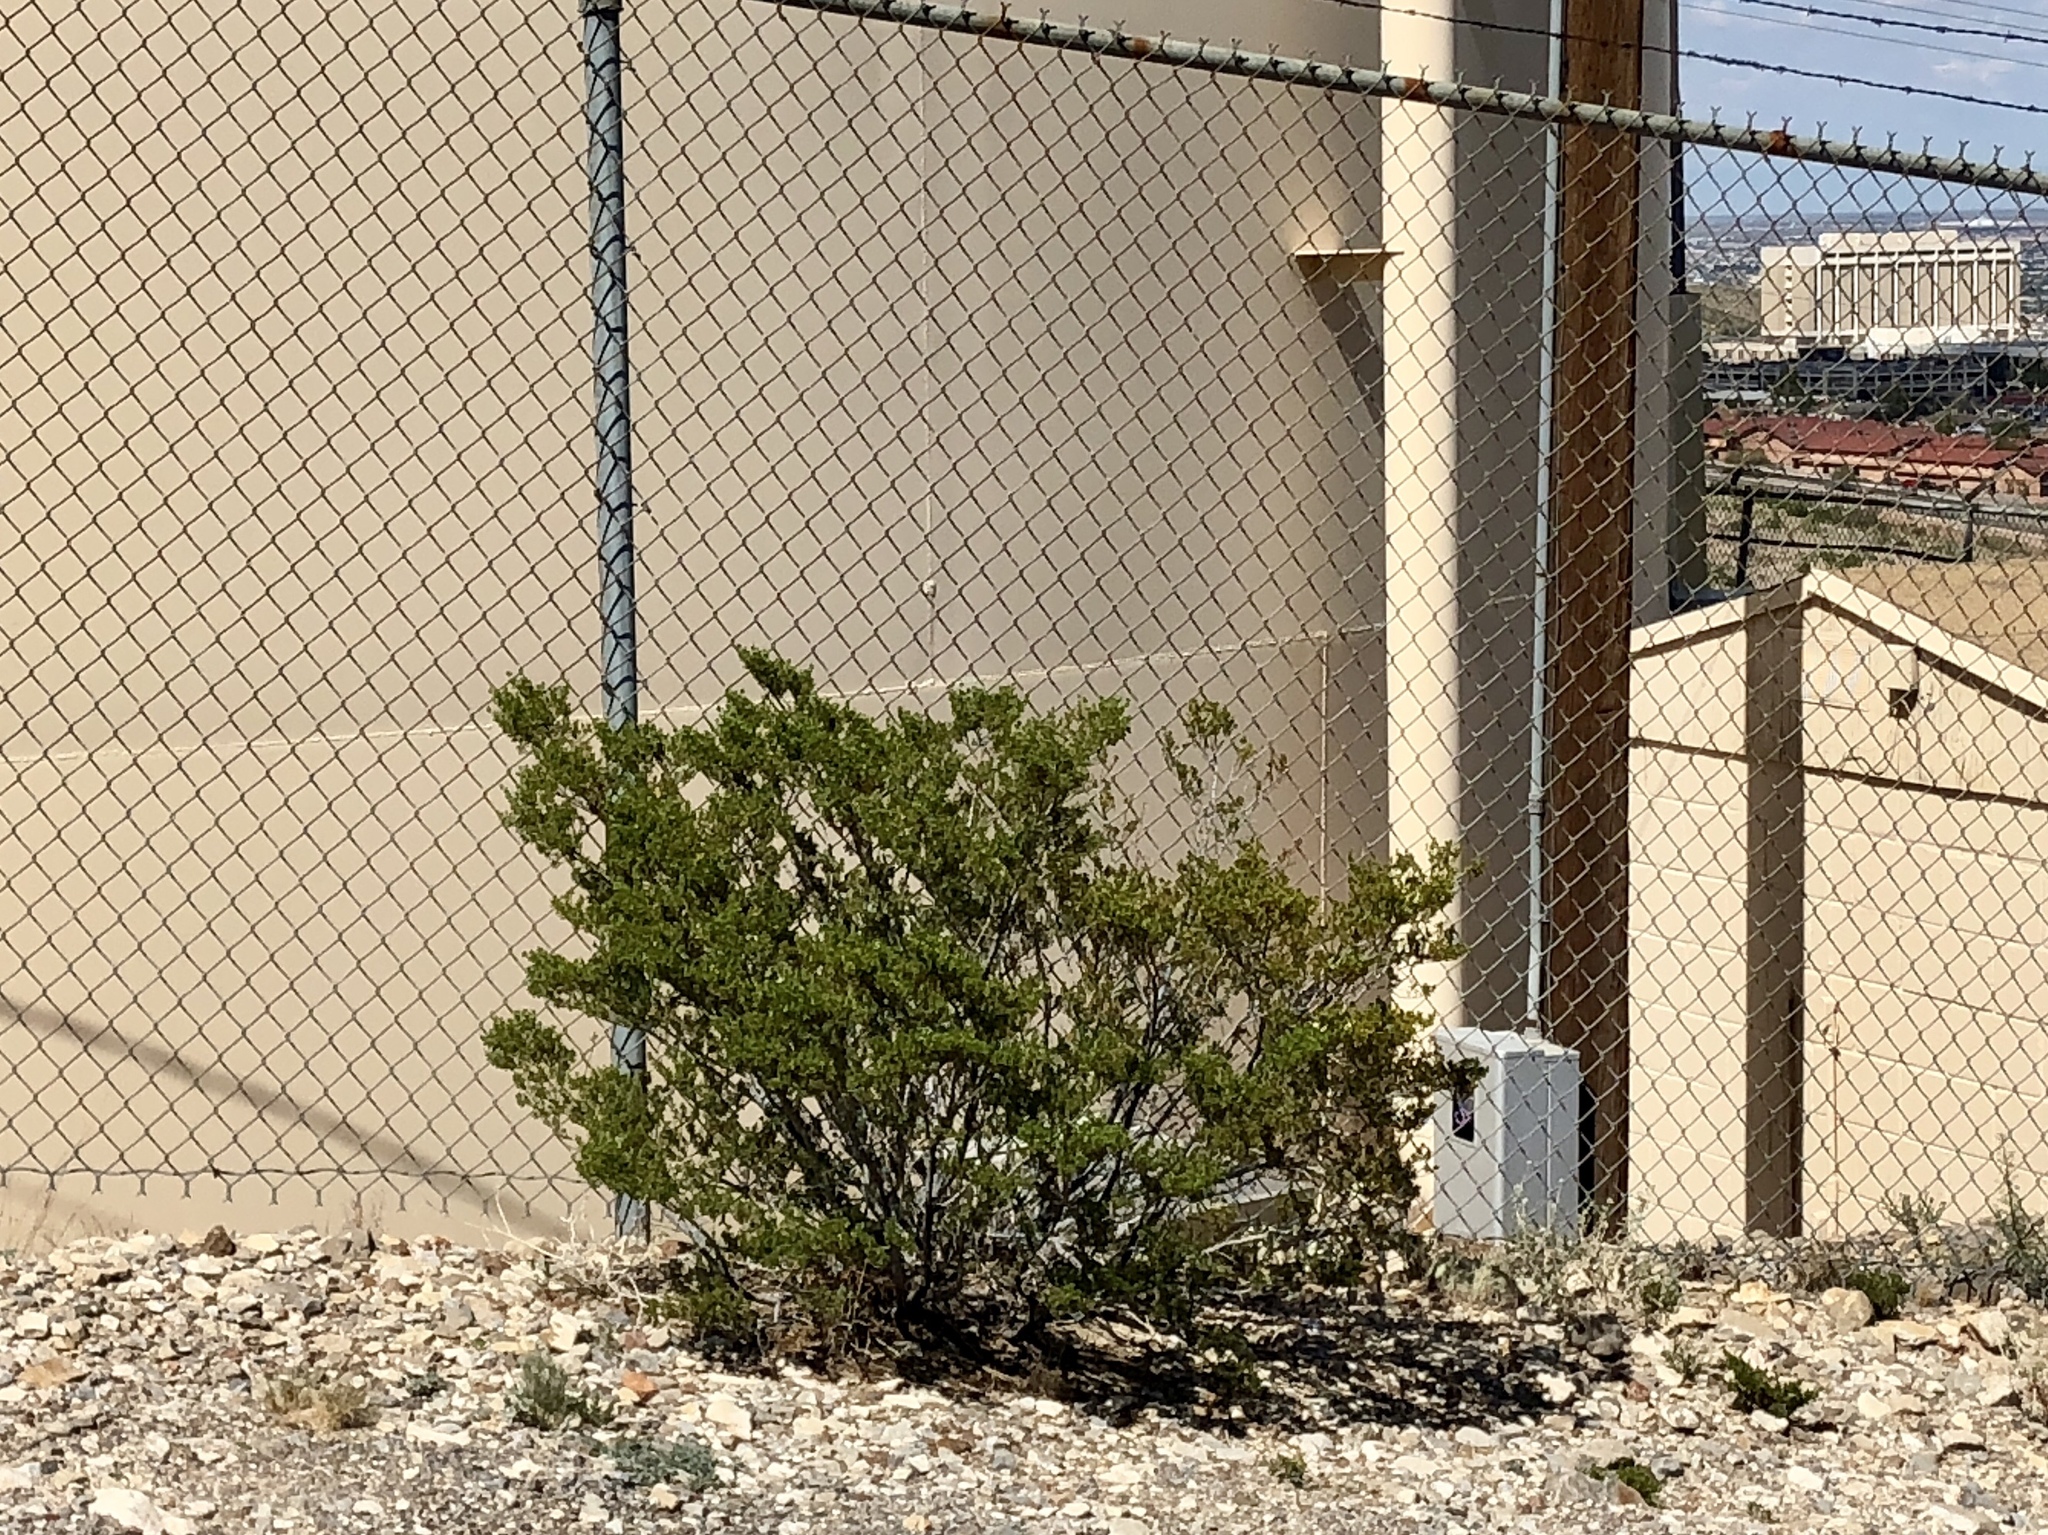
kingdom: Plantae
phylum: Tracheophyta
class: Magnoliopsida
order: Zygophyllales
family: Zygophyllaceae
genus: Larrea
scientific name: Larrea tridentata
